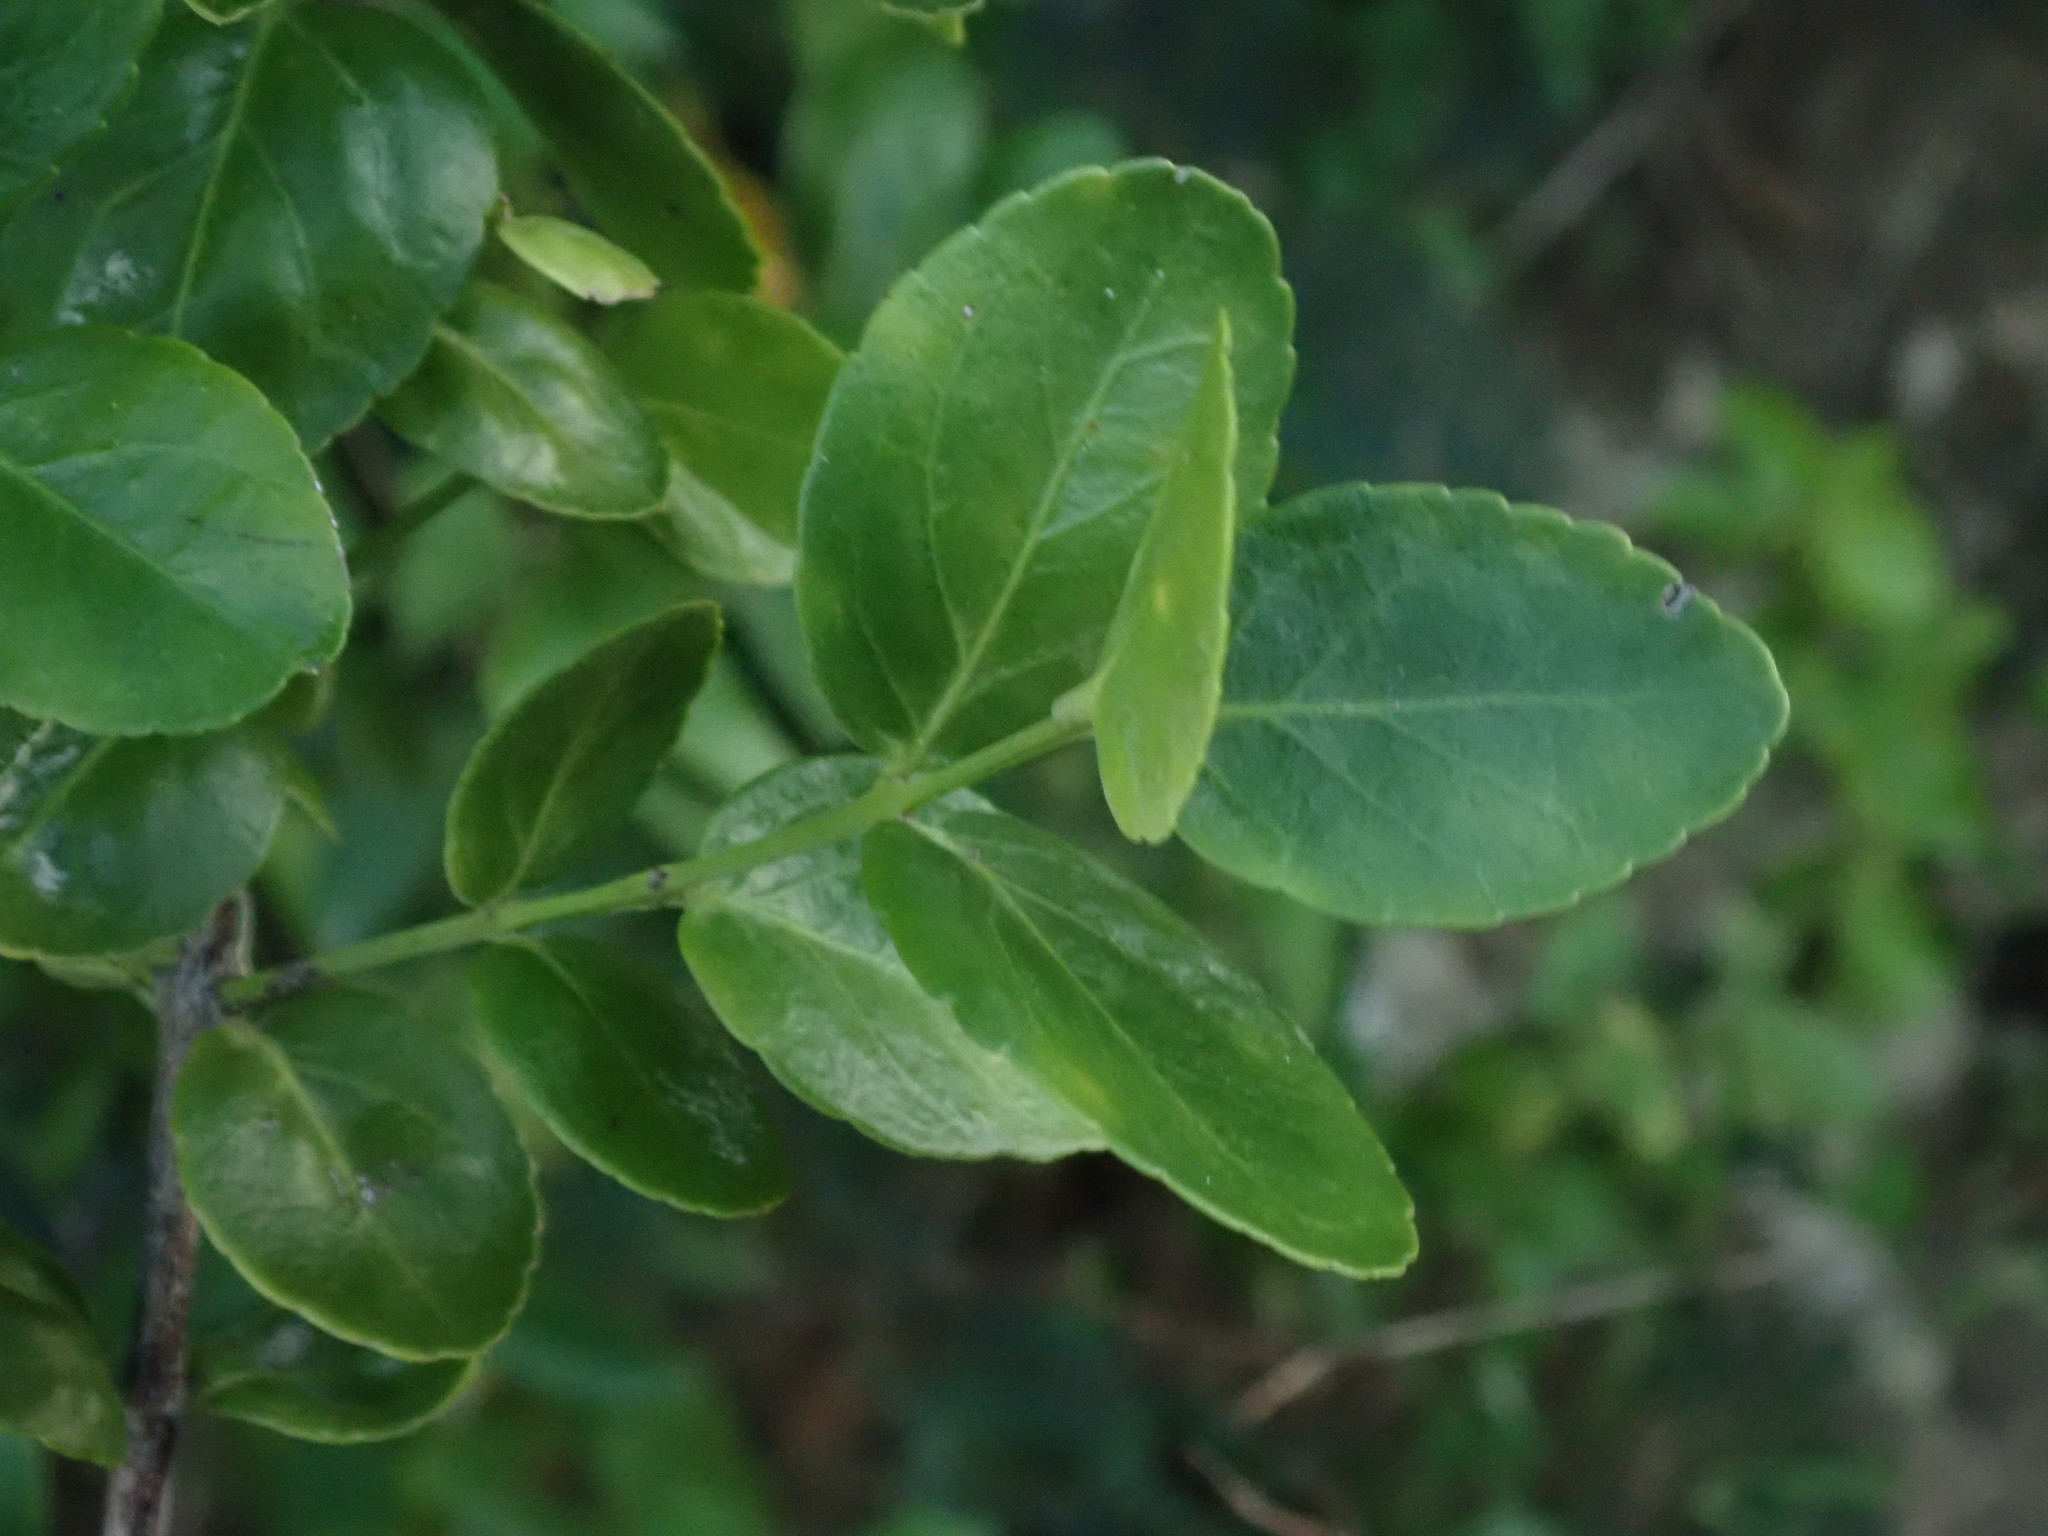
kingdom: Plantae
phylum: Tracheophyta
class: Magnoliopsida
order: Celastrales
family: Celastraceae
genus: Crossopetalum
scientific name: Crossopetalum rhacoma
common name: Maidenberry
